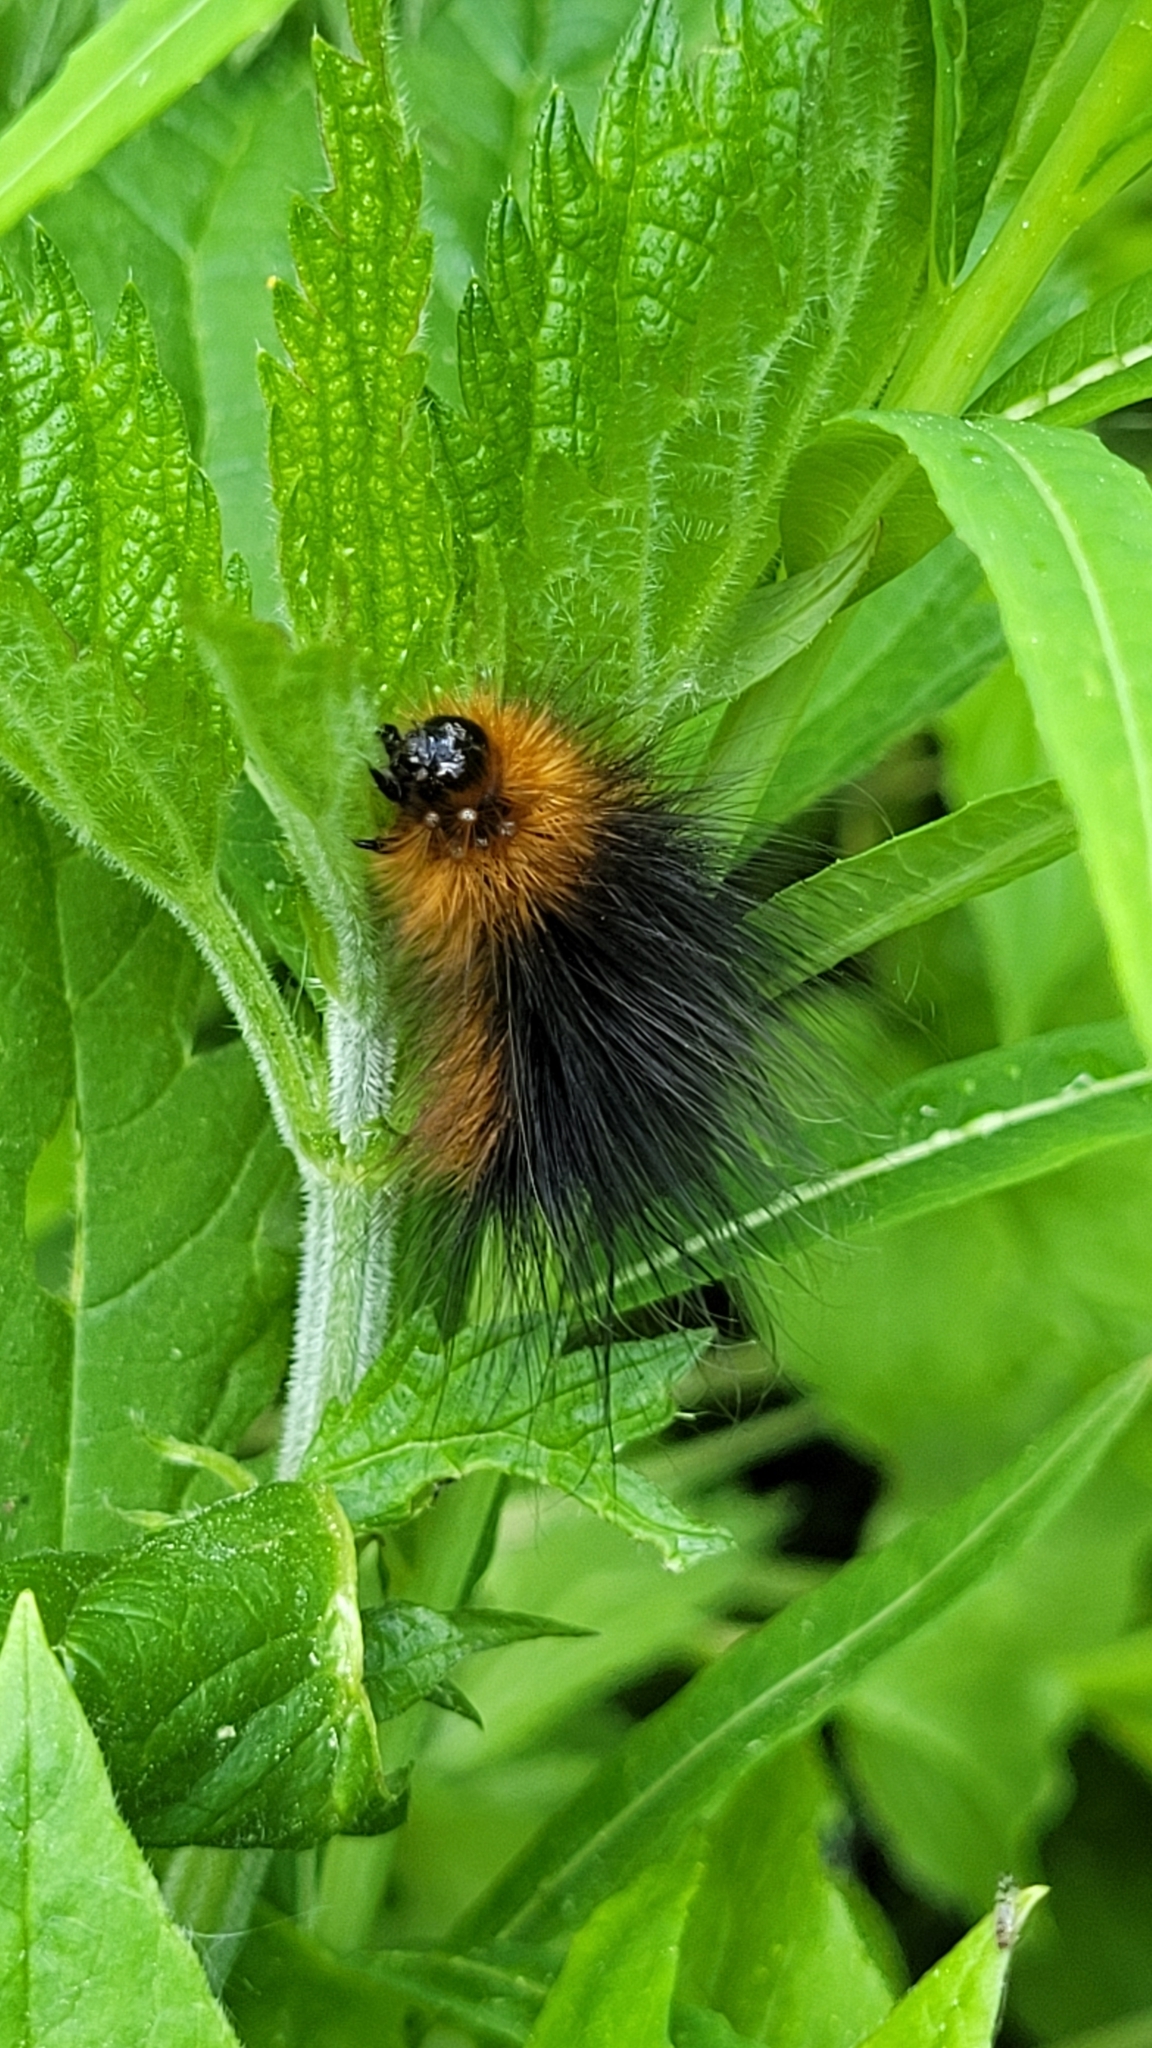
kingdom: Animalia
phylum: Arthropoda
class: Insecta
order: Lepidoptera
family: Erebidae
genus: Arctia
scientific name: Arctia caja
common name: Garden tiger
